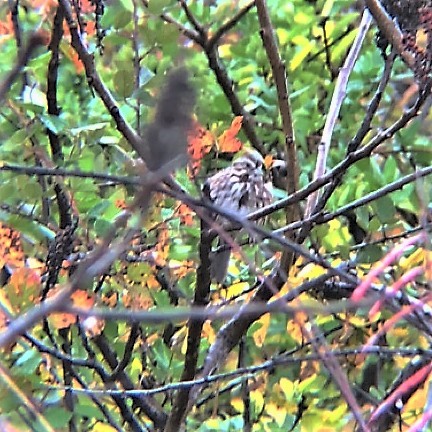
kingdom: Animalia
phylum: Chordata
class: Aves
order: Passeriformes
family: Passerellidae
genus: Melospiza
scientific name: Melospiza melodia
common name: Song sparrow
